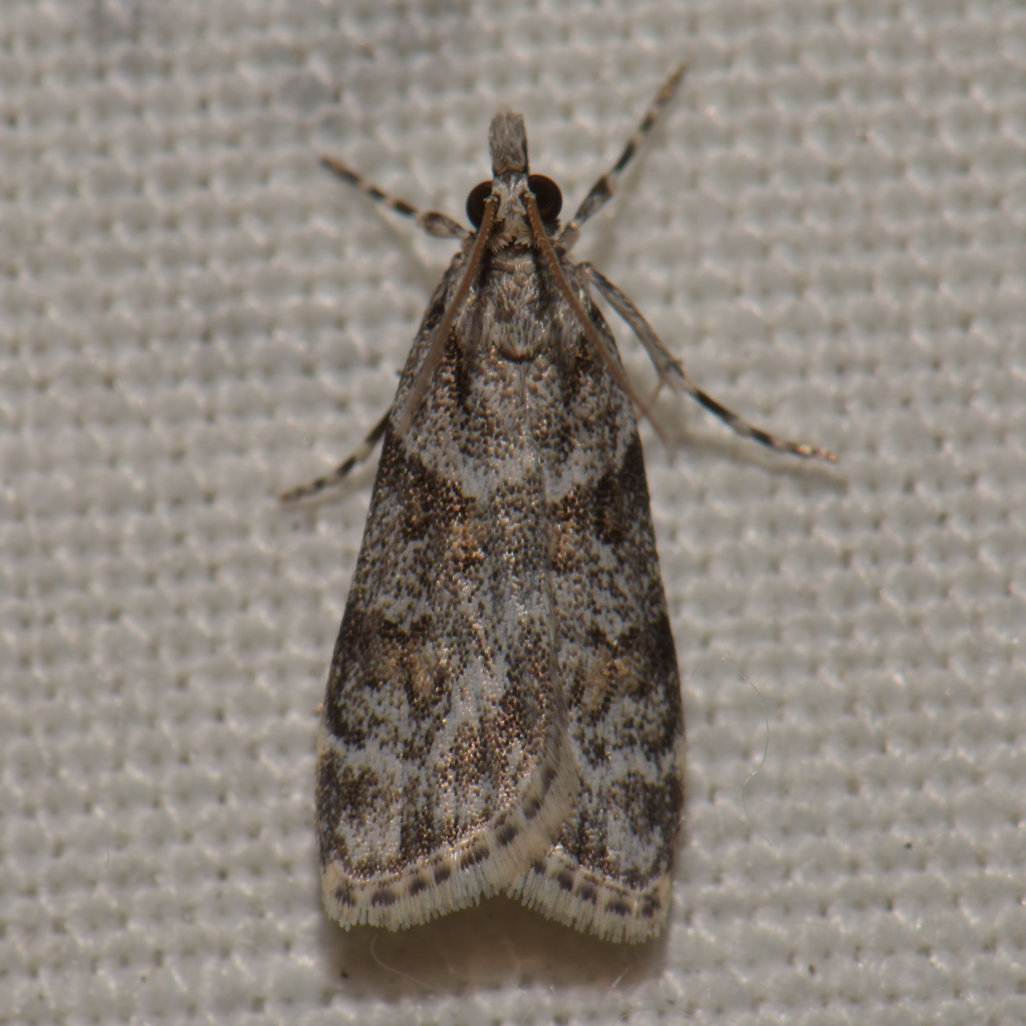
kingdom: Animalia
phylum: Arthropoda
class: Insecta
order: Lepidoptera
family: Crambidae
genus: Scoparia
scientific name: Scoparia biplagialis
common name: Double-striped scoparia moth
